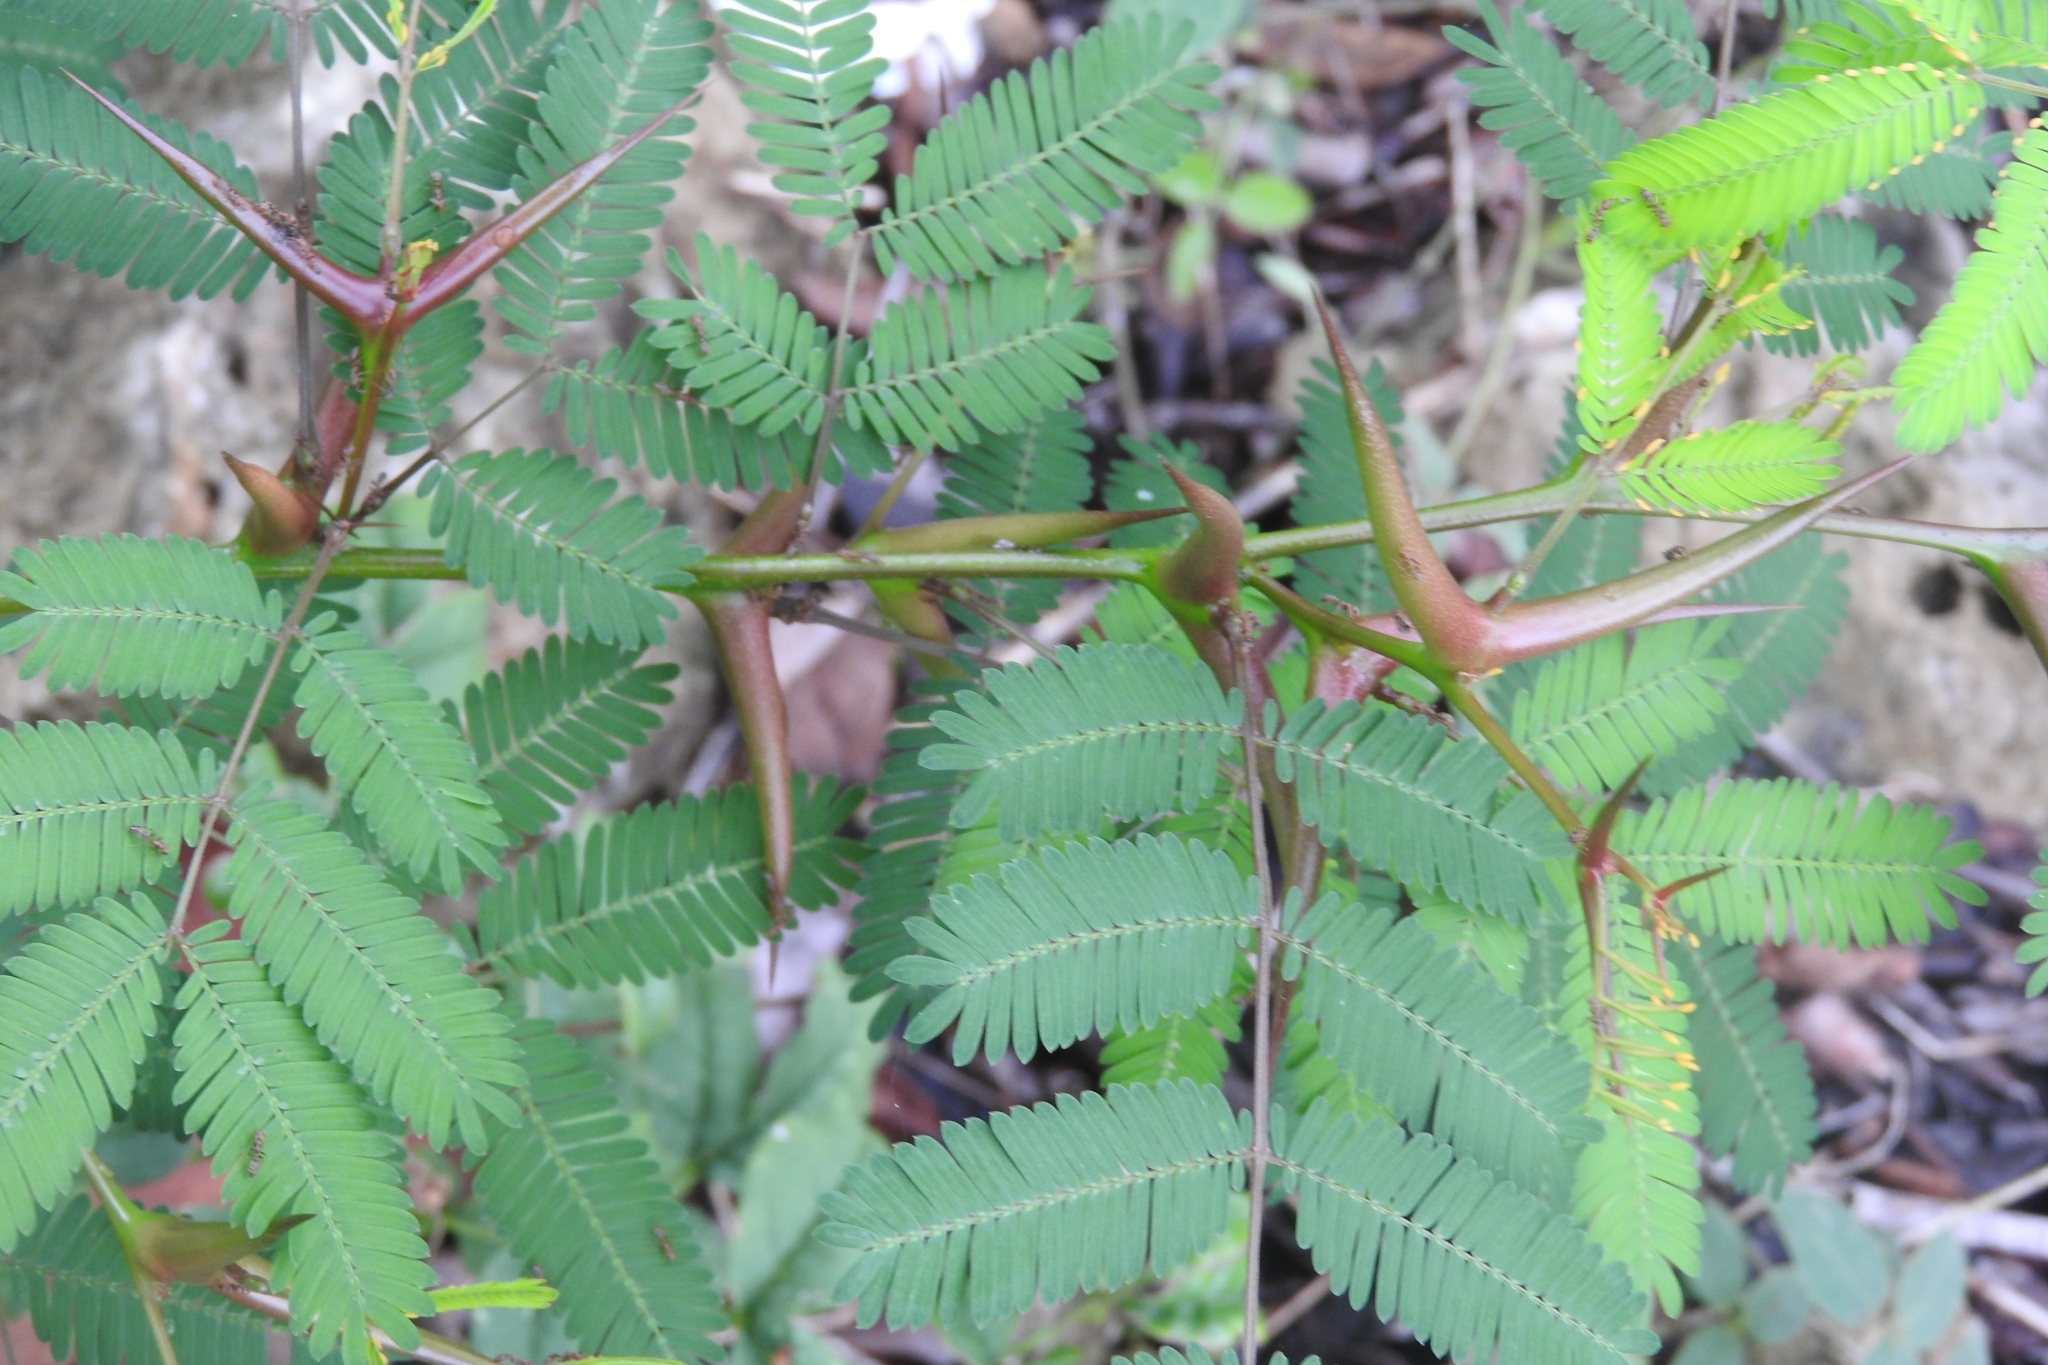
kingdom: Plantae
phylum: Tracheophyta
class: Magnoliopsida
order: Fabales
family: Fabaceae
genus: Vachellia
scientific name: Vachellia cornigera
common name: Bullhorn wattle
